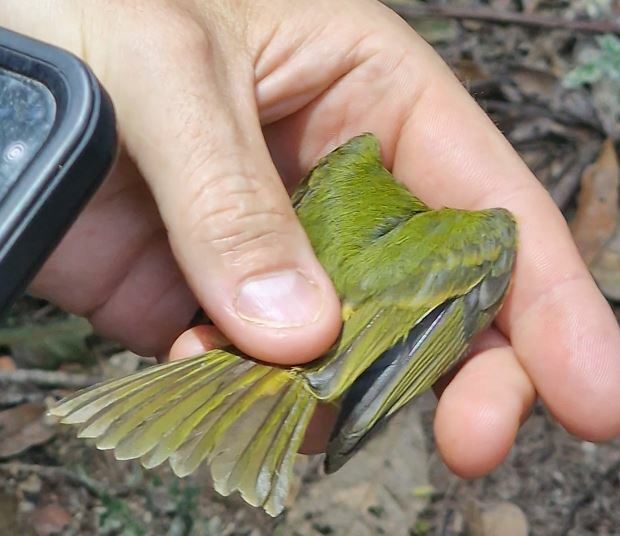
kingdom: Animalia
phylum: Chordata
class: Aves
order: Passeriformes
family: Tyrannidae
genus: Mionectes
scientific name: Mionectes oleagineus
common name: Ochre-bellied flycatcher
